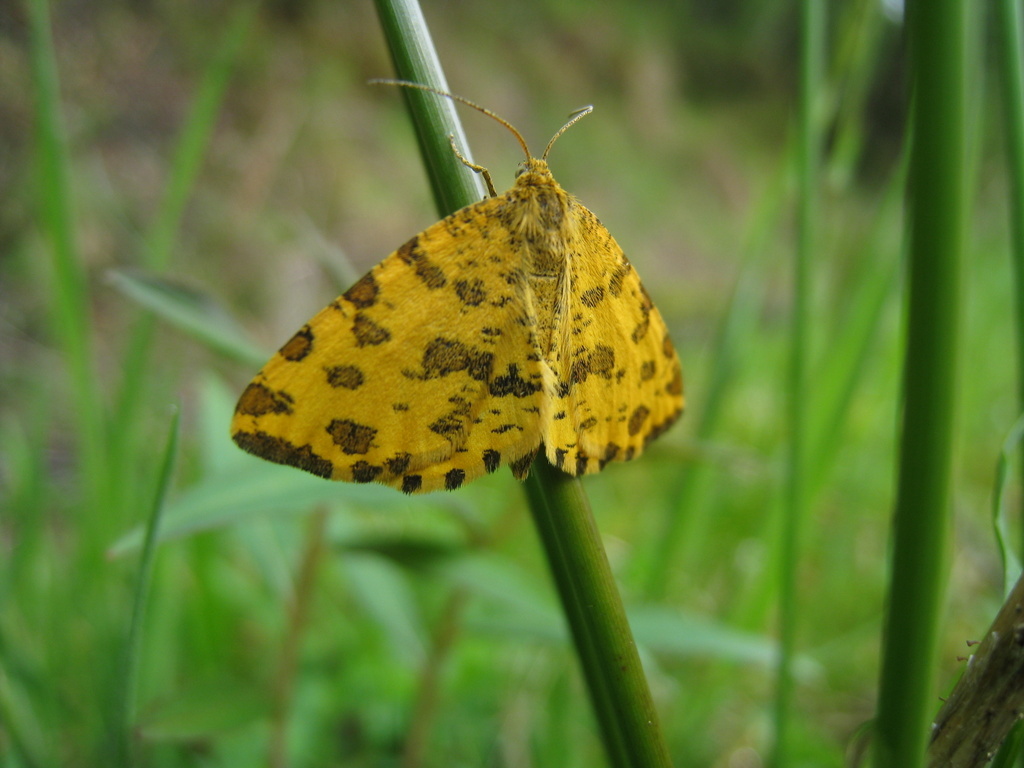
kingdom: Animalia
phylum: Arthropoda
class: Insecta
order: Lepidoptera
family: Geometridae
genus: Pseudopanthera
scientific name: Pseudopanthera macularia
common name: Speckled yellow
